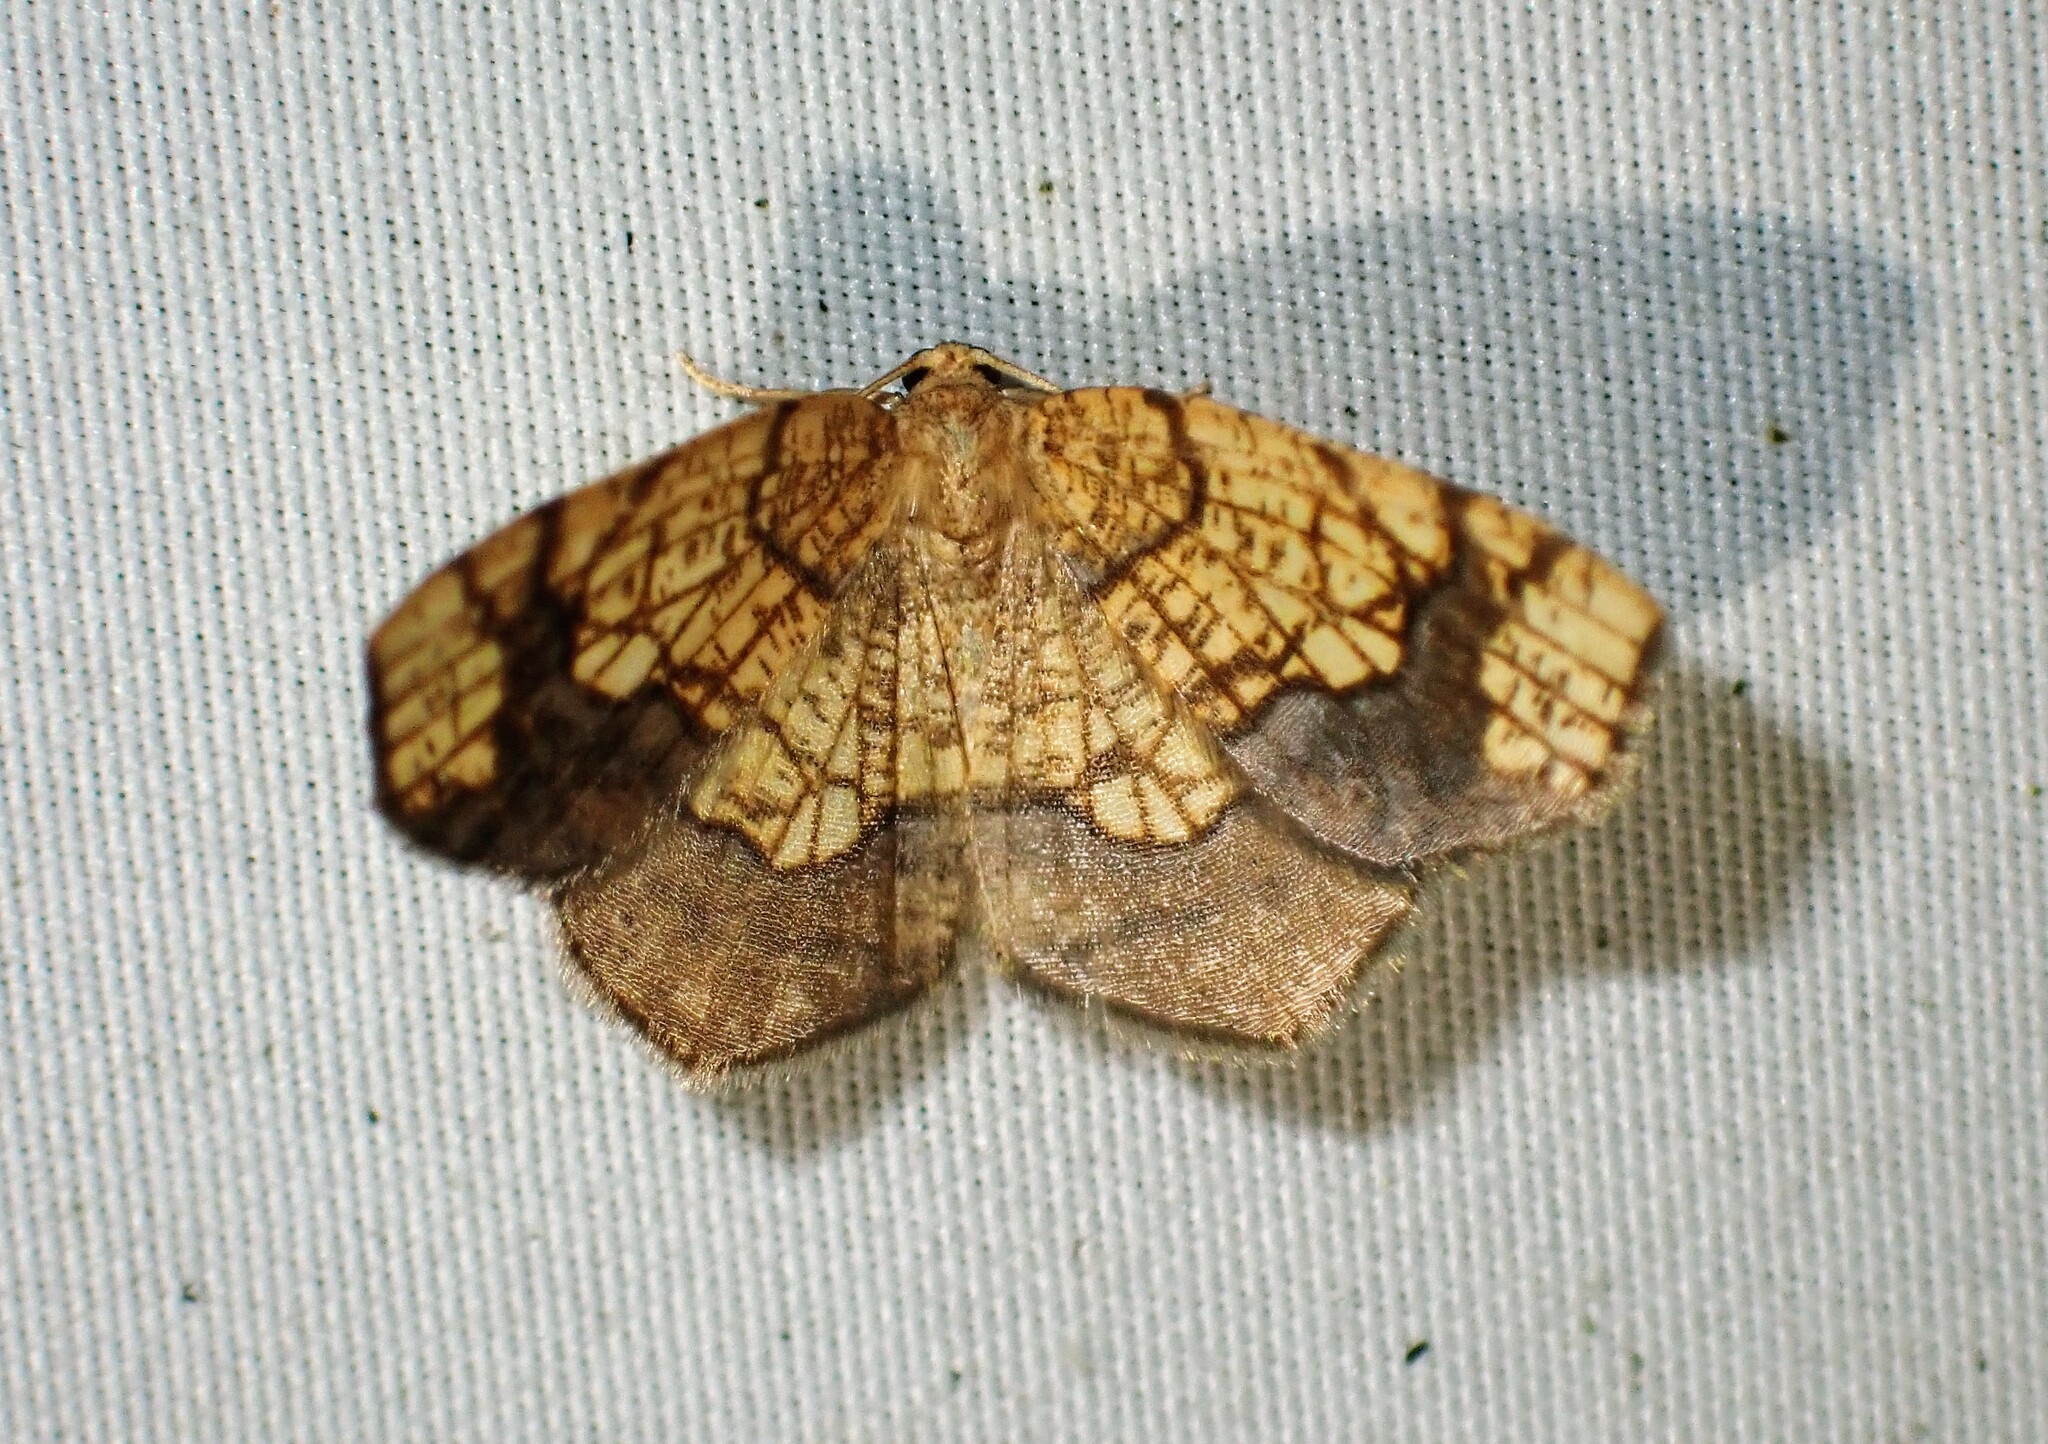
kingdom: Animalia
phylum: Arthropoda
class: Insecta
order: Lepidoptera
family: Geometridae
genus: Nematocampa
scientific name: Nematocampa resistaria
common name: Horned spanworm moth
